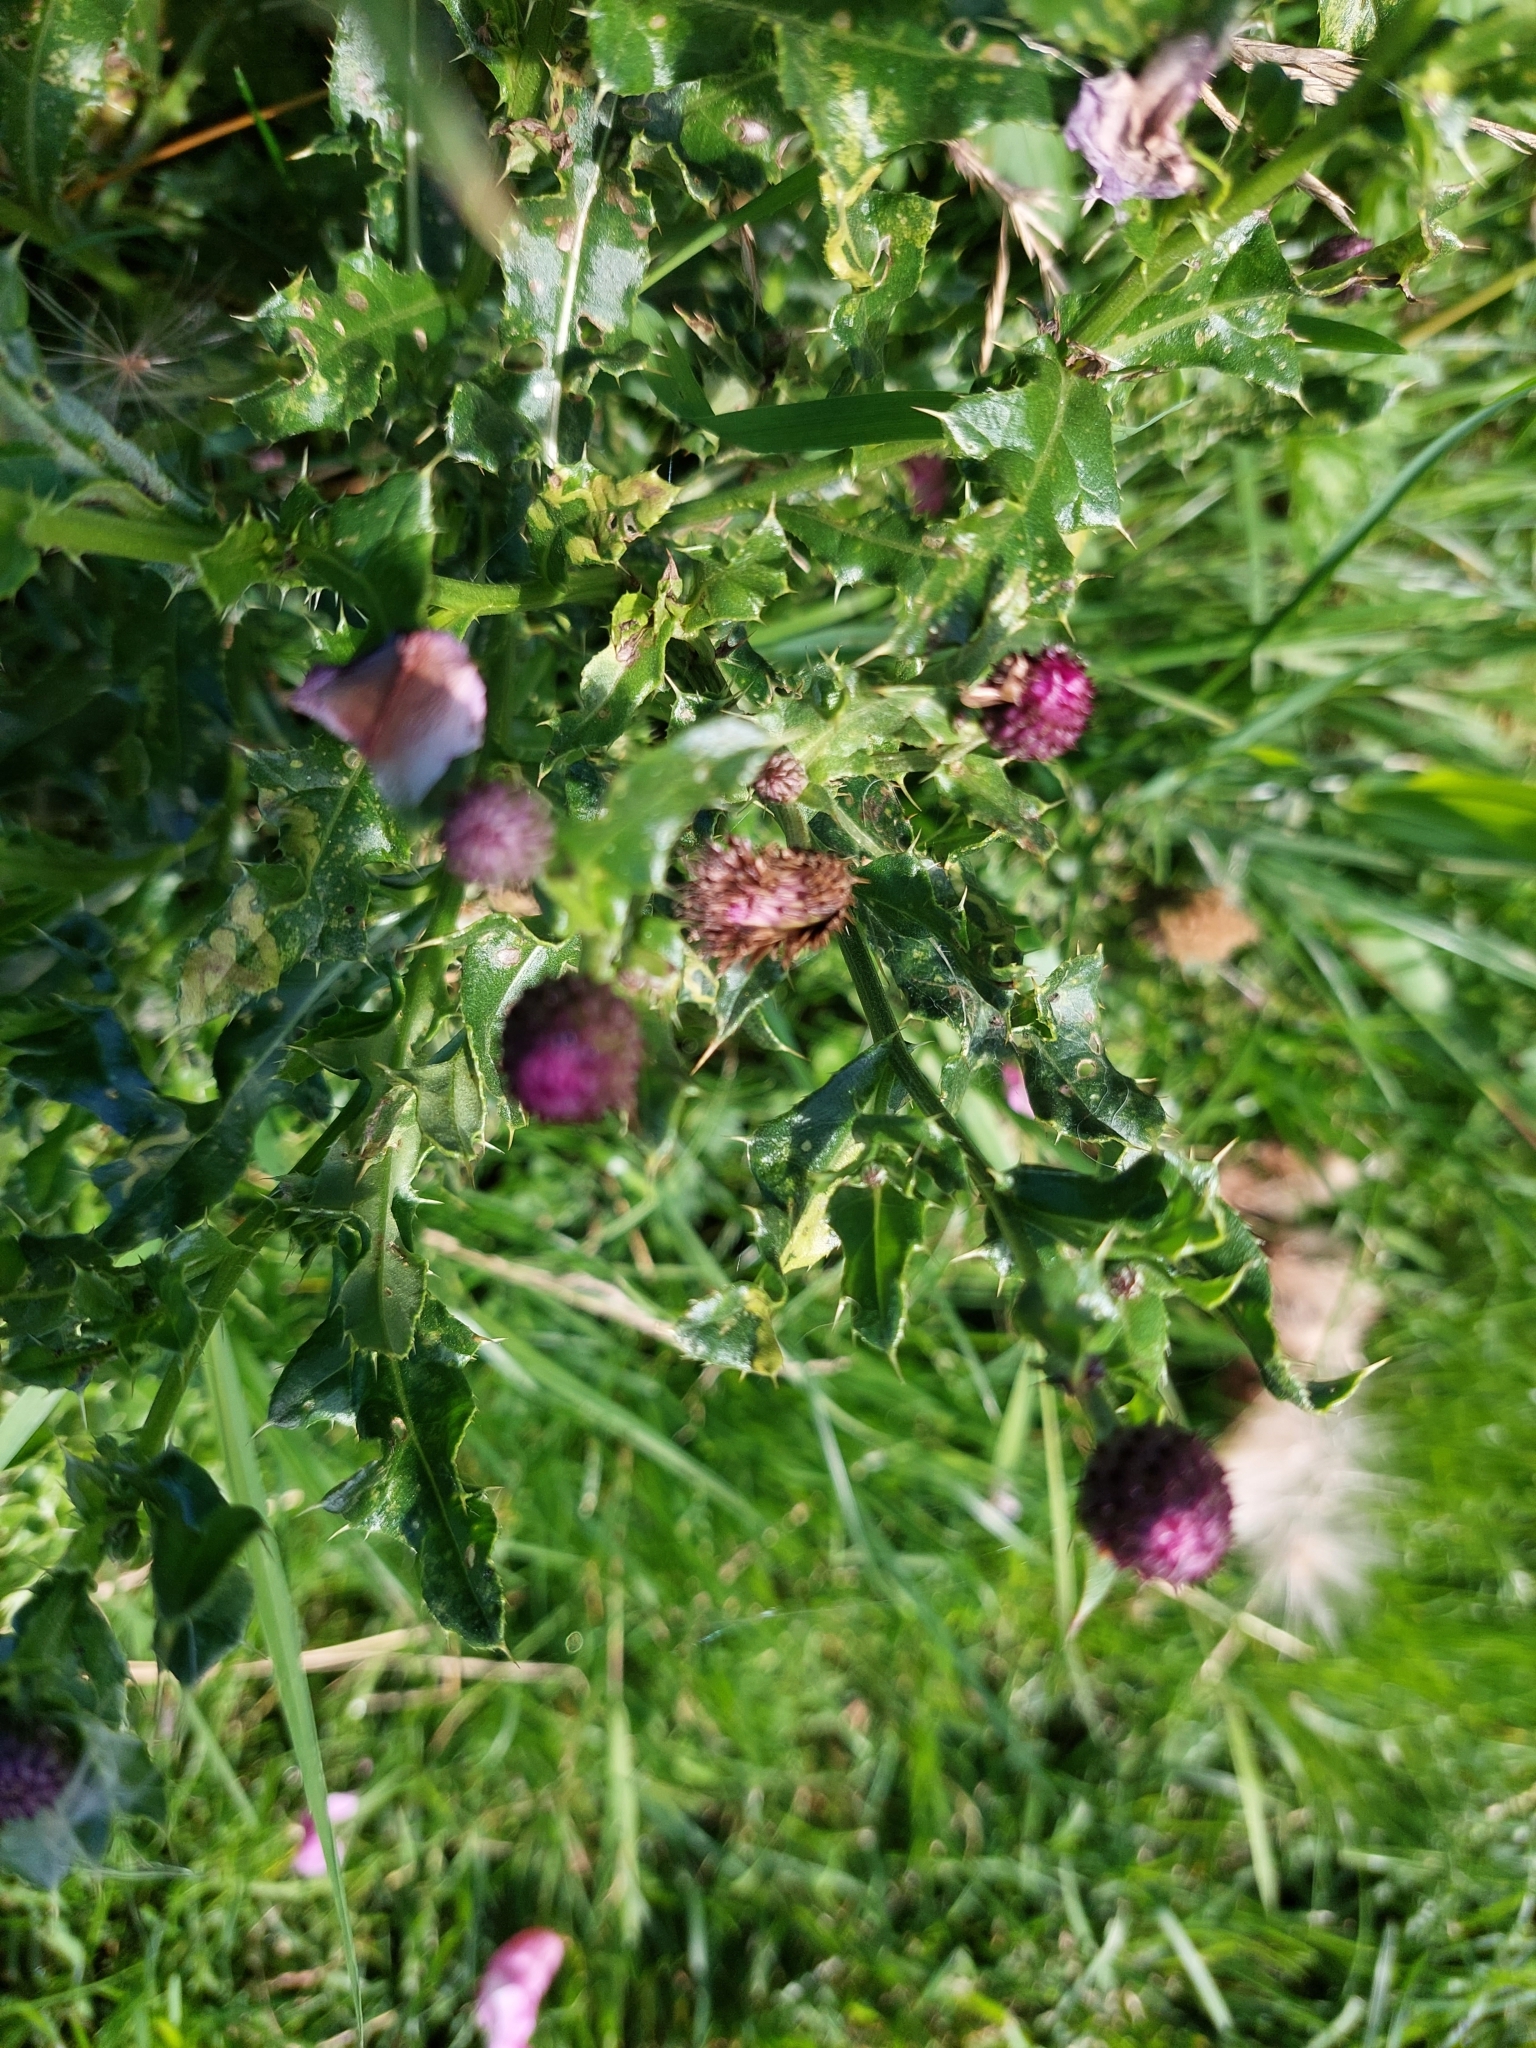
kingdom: Plantae
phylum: Tracheophyta
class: Magnoliopsida
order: Asterales
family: Asteraceae
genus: Cirsium
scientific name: Cirsium arvense
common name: Creeping thistle
